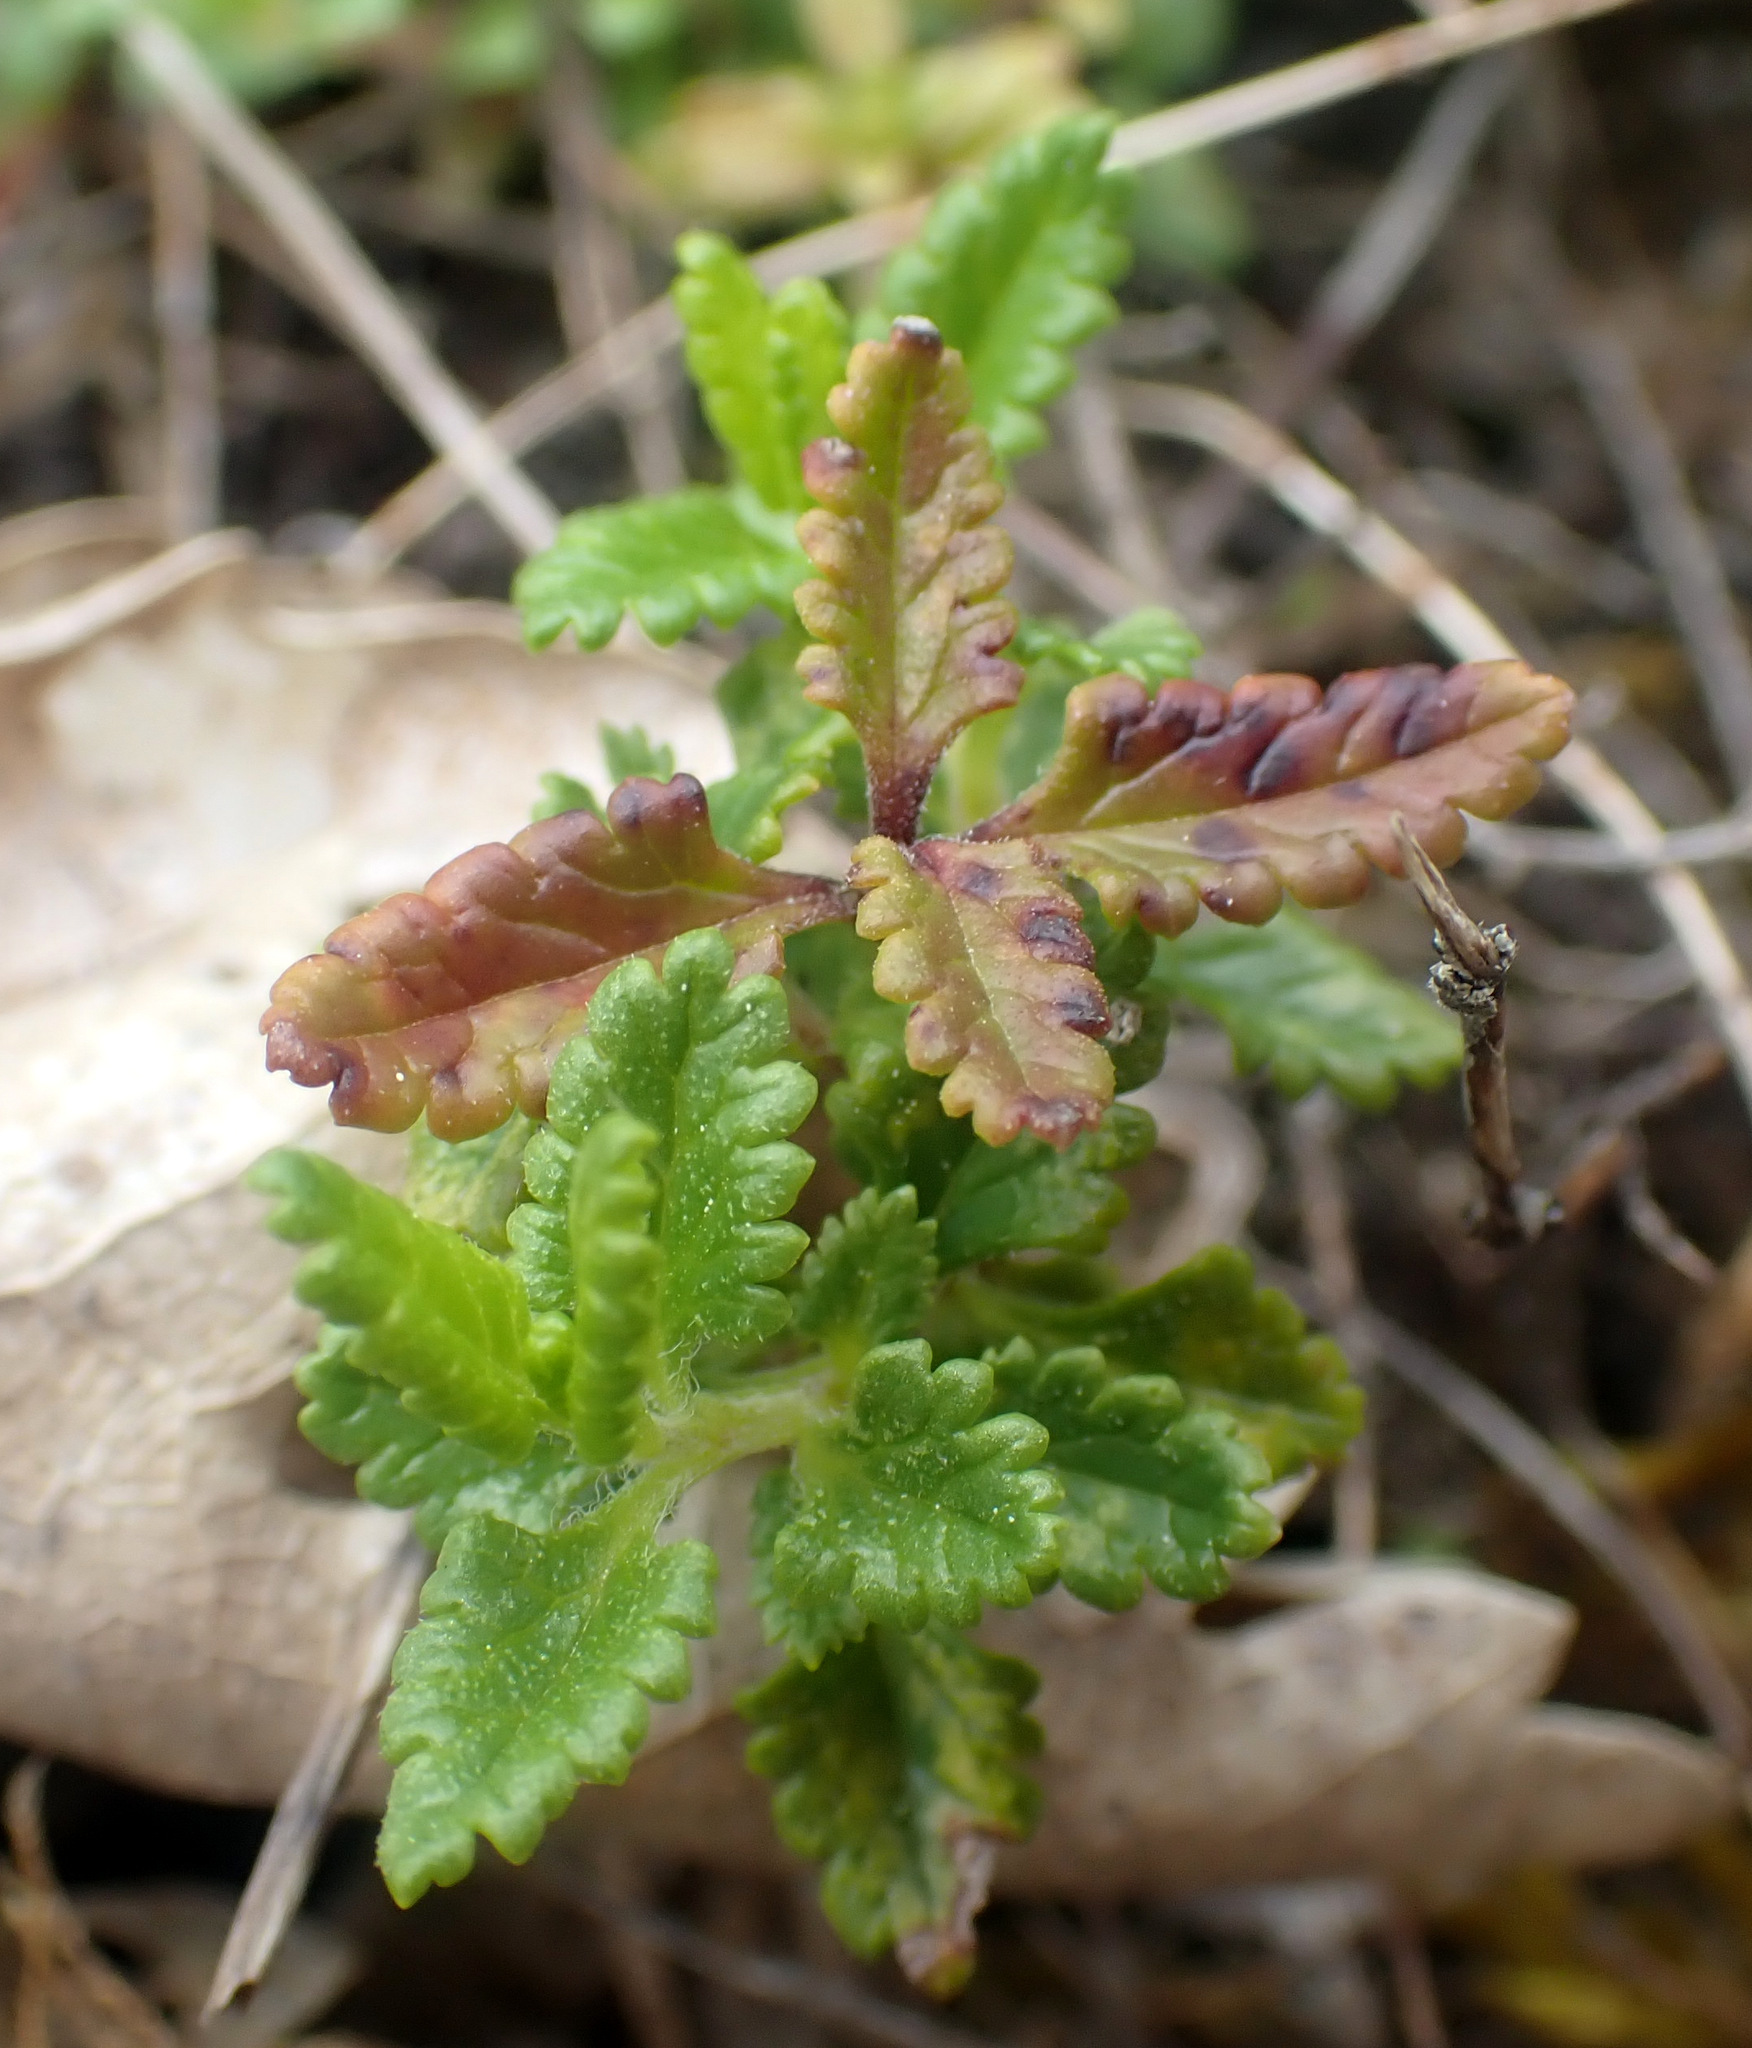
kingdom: Plantae
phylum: Tracheophyta
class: Magnoliopsida
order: Lamiales
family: Lamiaceae
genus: Teucrium
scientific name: Teucrium chamaedrys
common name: Wall germander
